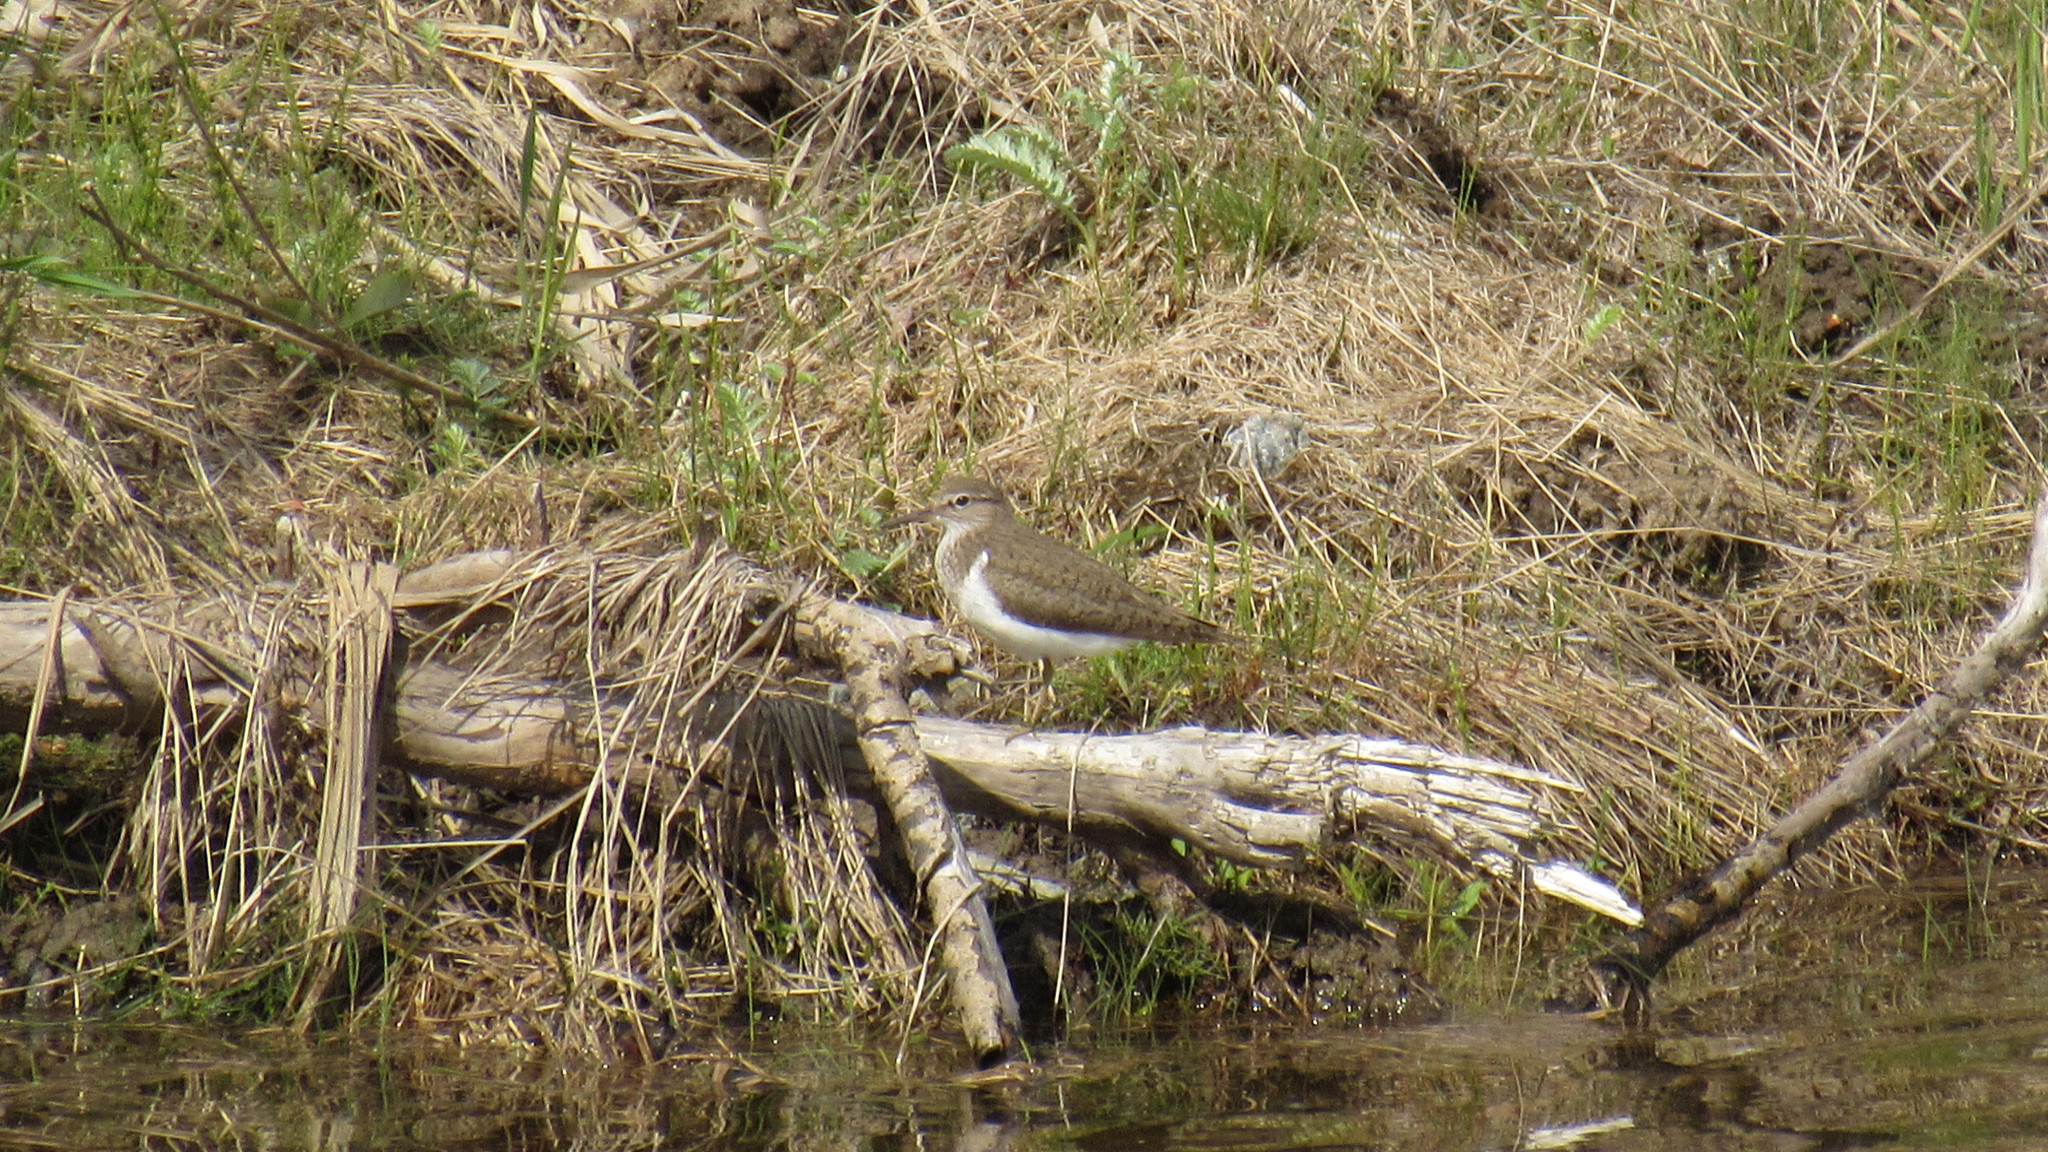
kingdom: Animalia
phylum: Chordata
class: Aves
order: Charadriiformes
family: Scolopacidae
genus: Actitis
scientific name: Actitis hypoleucos
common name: Common sandpiper
